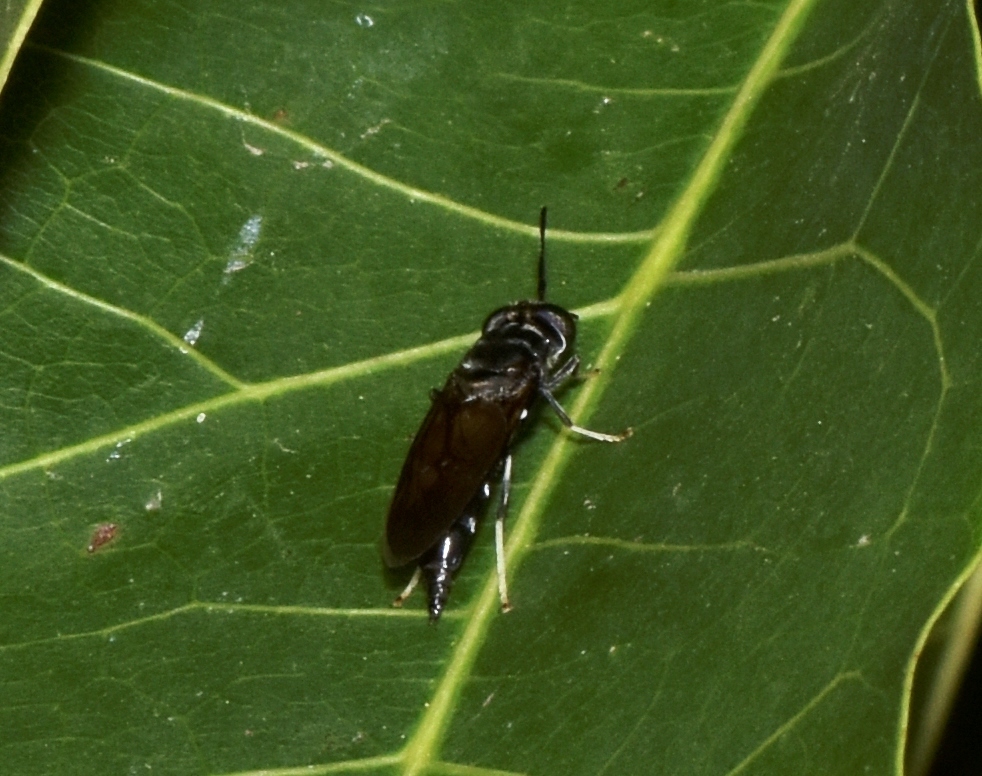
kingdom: Animalia
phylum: Arthropoda
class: Insecta
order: Diptera
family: Stratiomyidae
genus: Hermetia
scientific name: Hermetia illucens
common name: Black soldier fly
